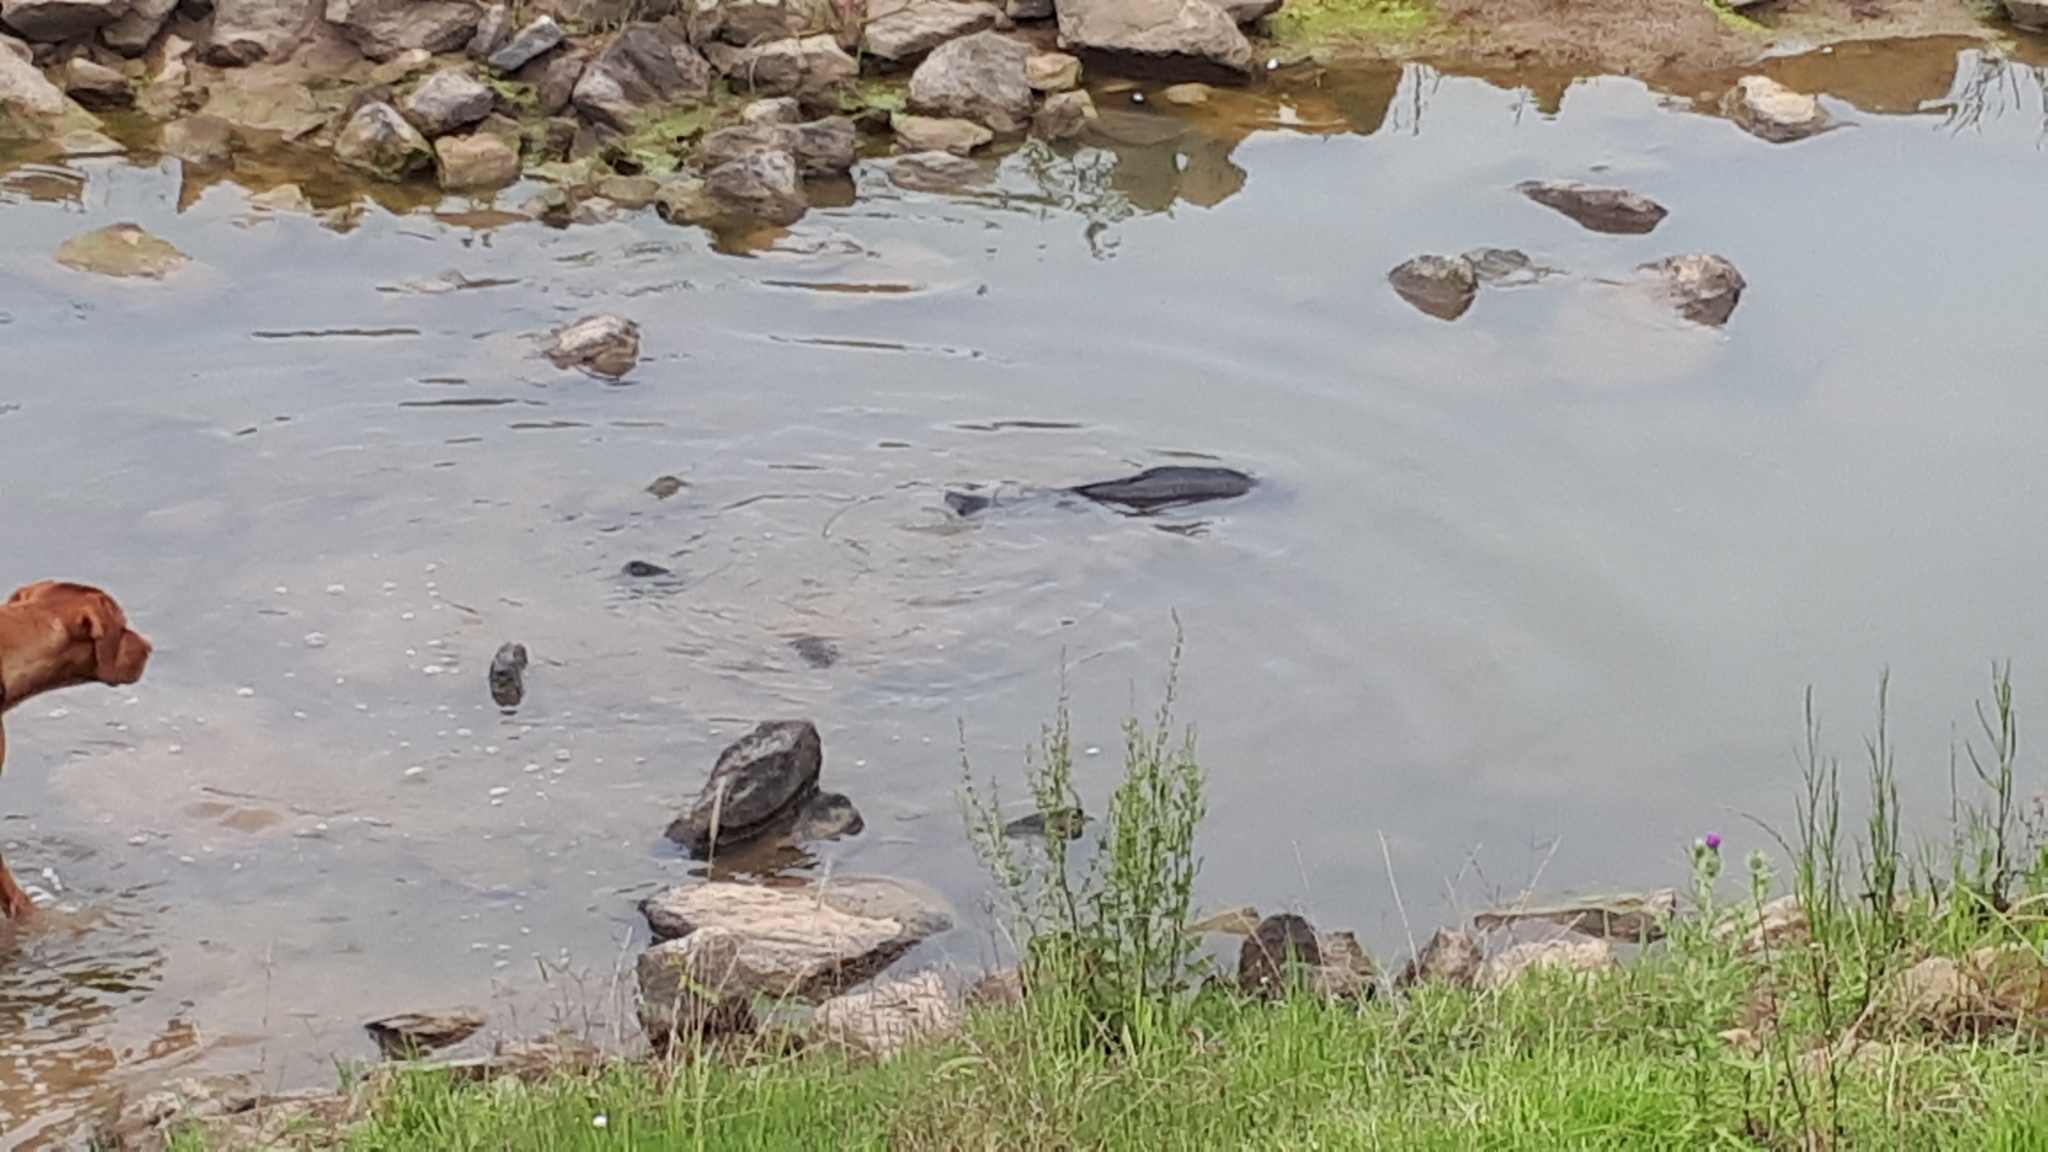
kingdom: Animalia
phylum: Chordata
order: Cypriniformes
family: Cyprinidae
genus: Cyprinus
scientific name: Cyprinus carpio
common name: Common carp
